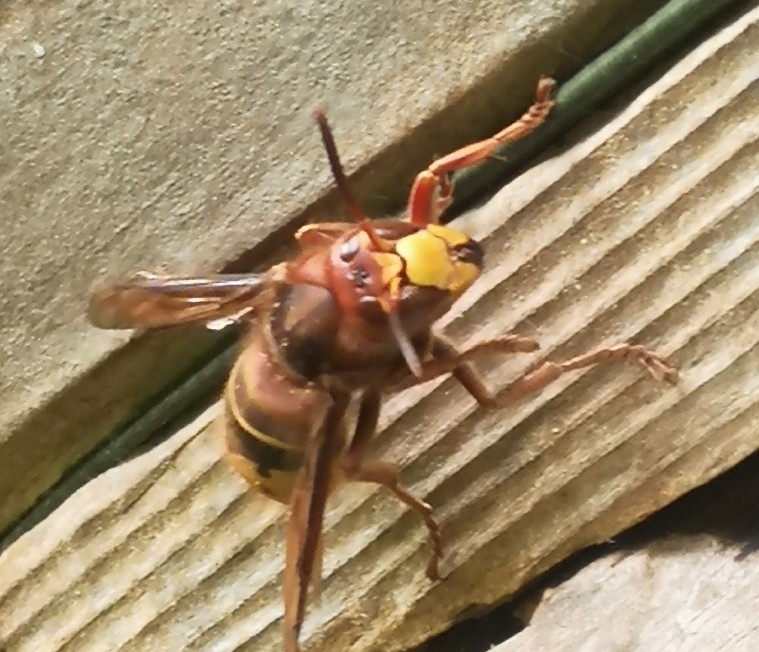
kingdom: Animalia
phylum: Arthropoda
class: Insecta
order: Hymenoptera
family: Vespidae
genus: Vespa
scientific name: Vespa crabro
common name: Hornet
